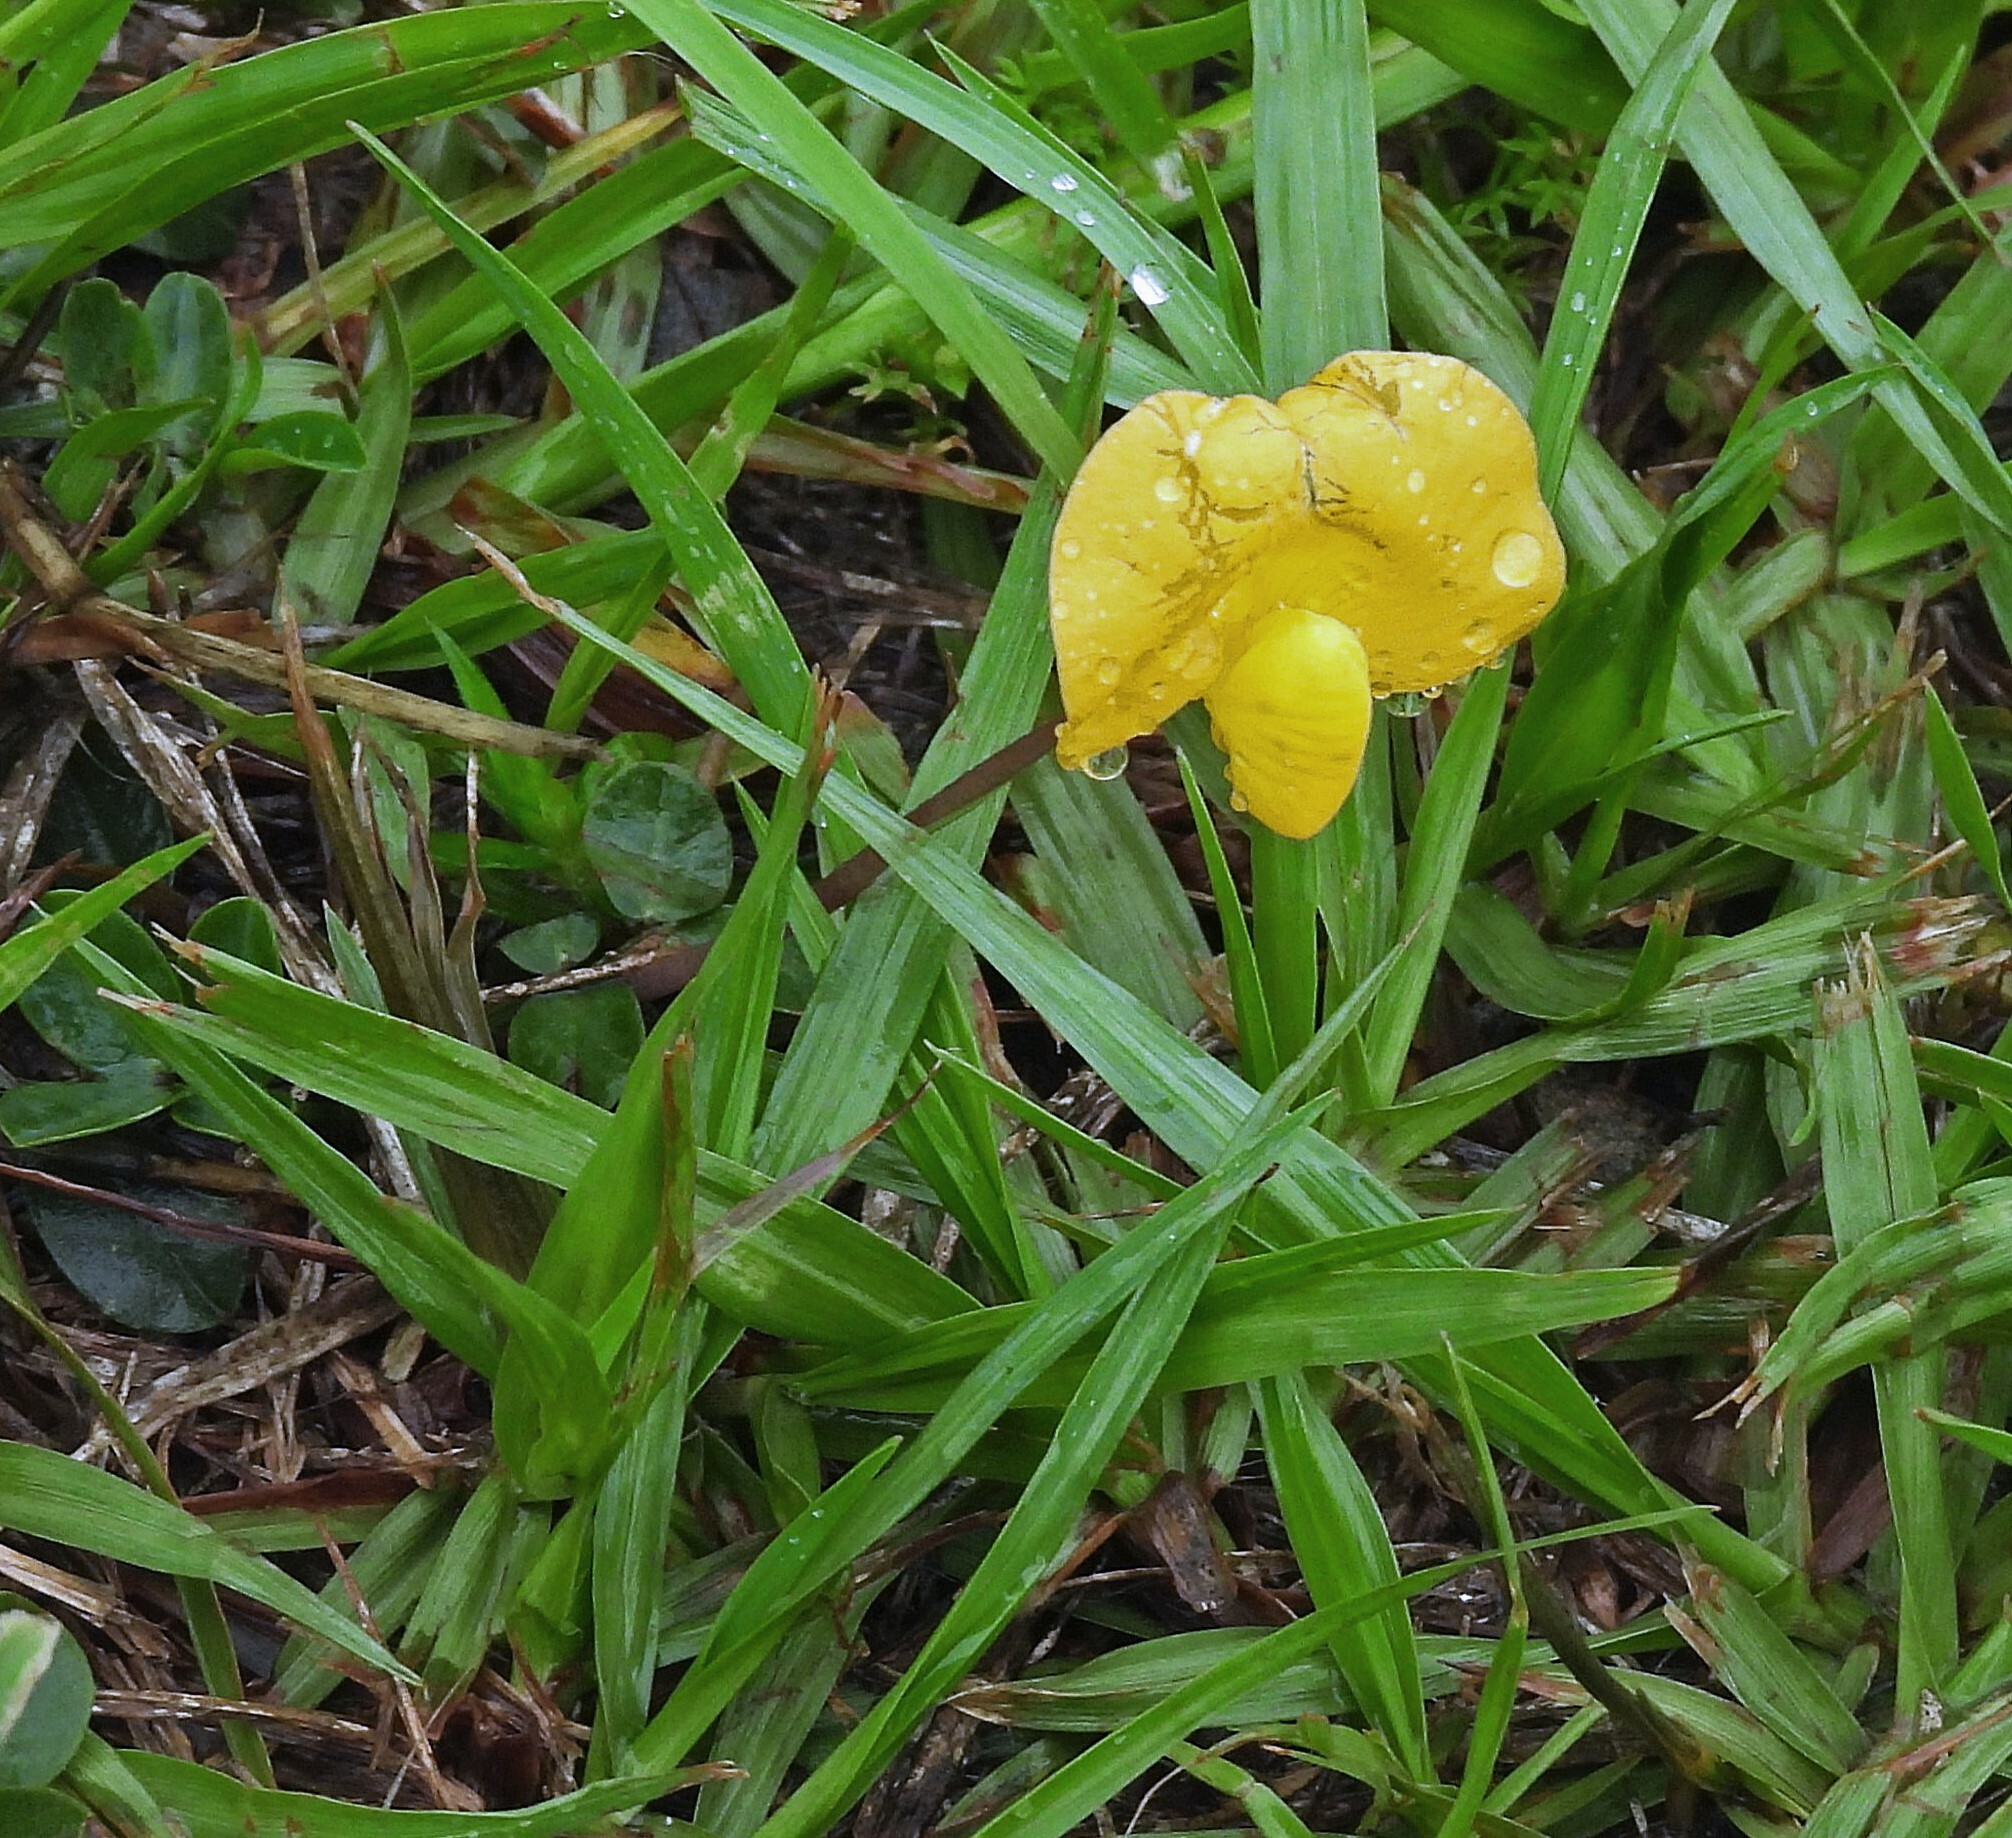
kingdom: Plantae
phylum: Tracheophyta
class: Magnoliopsida
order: Fabales
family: Fabaceae
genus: Arachis
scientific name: Arachis glabrata
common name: Rhizoma peanut
